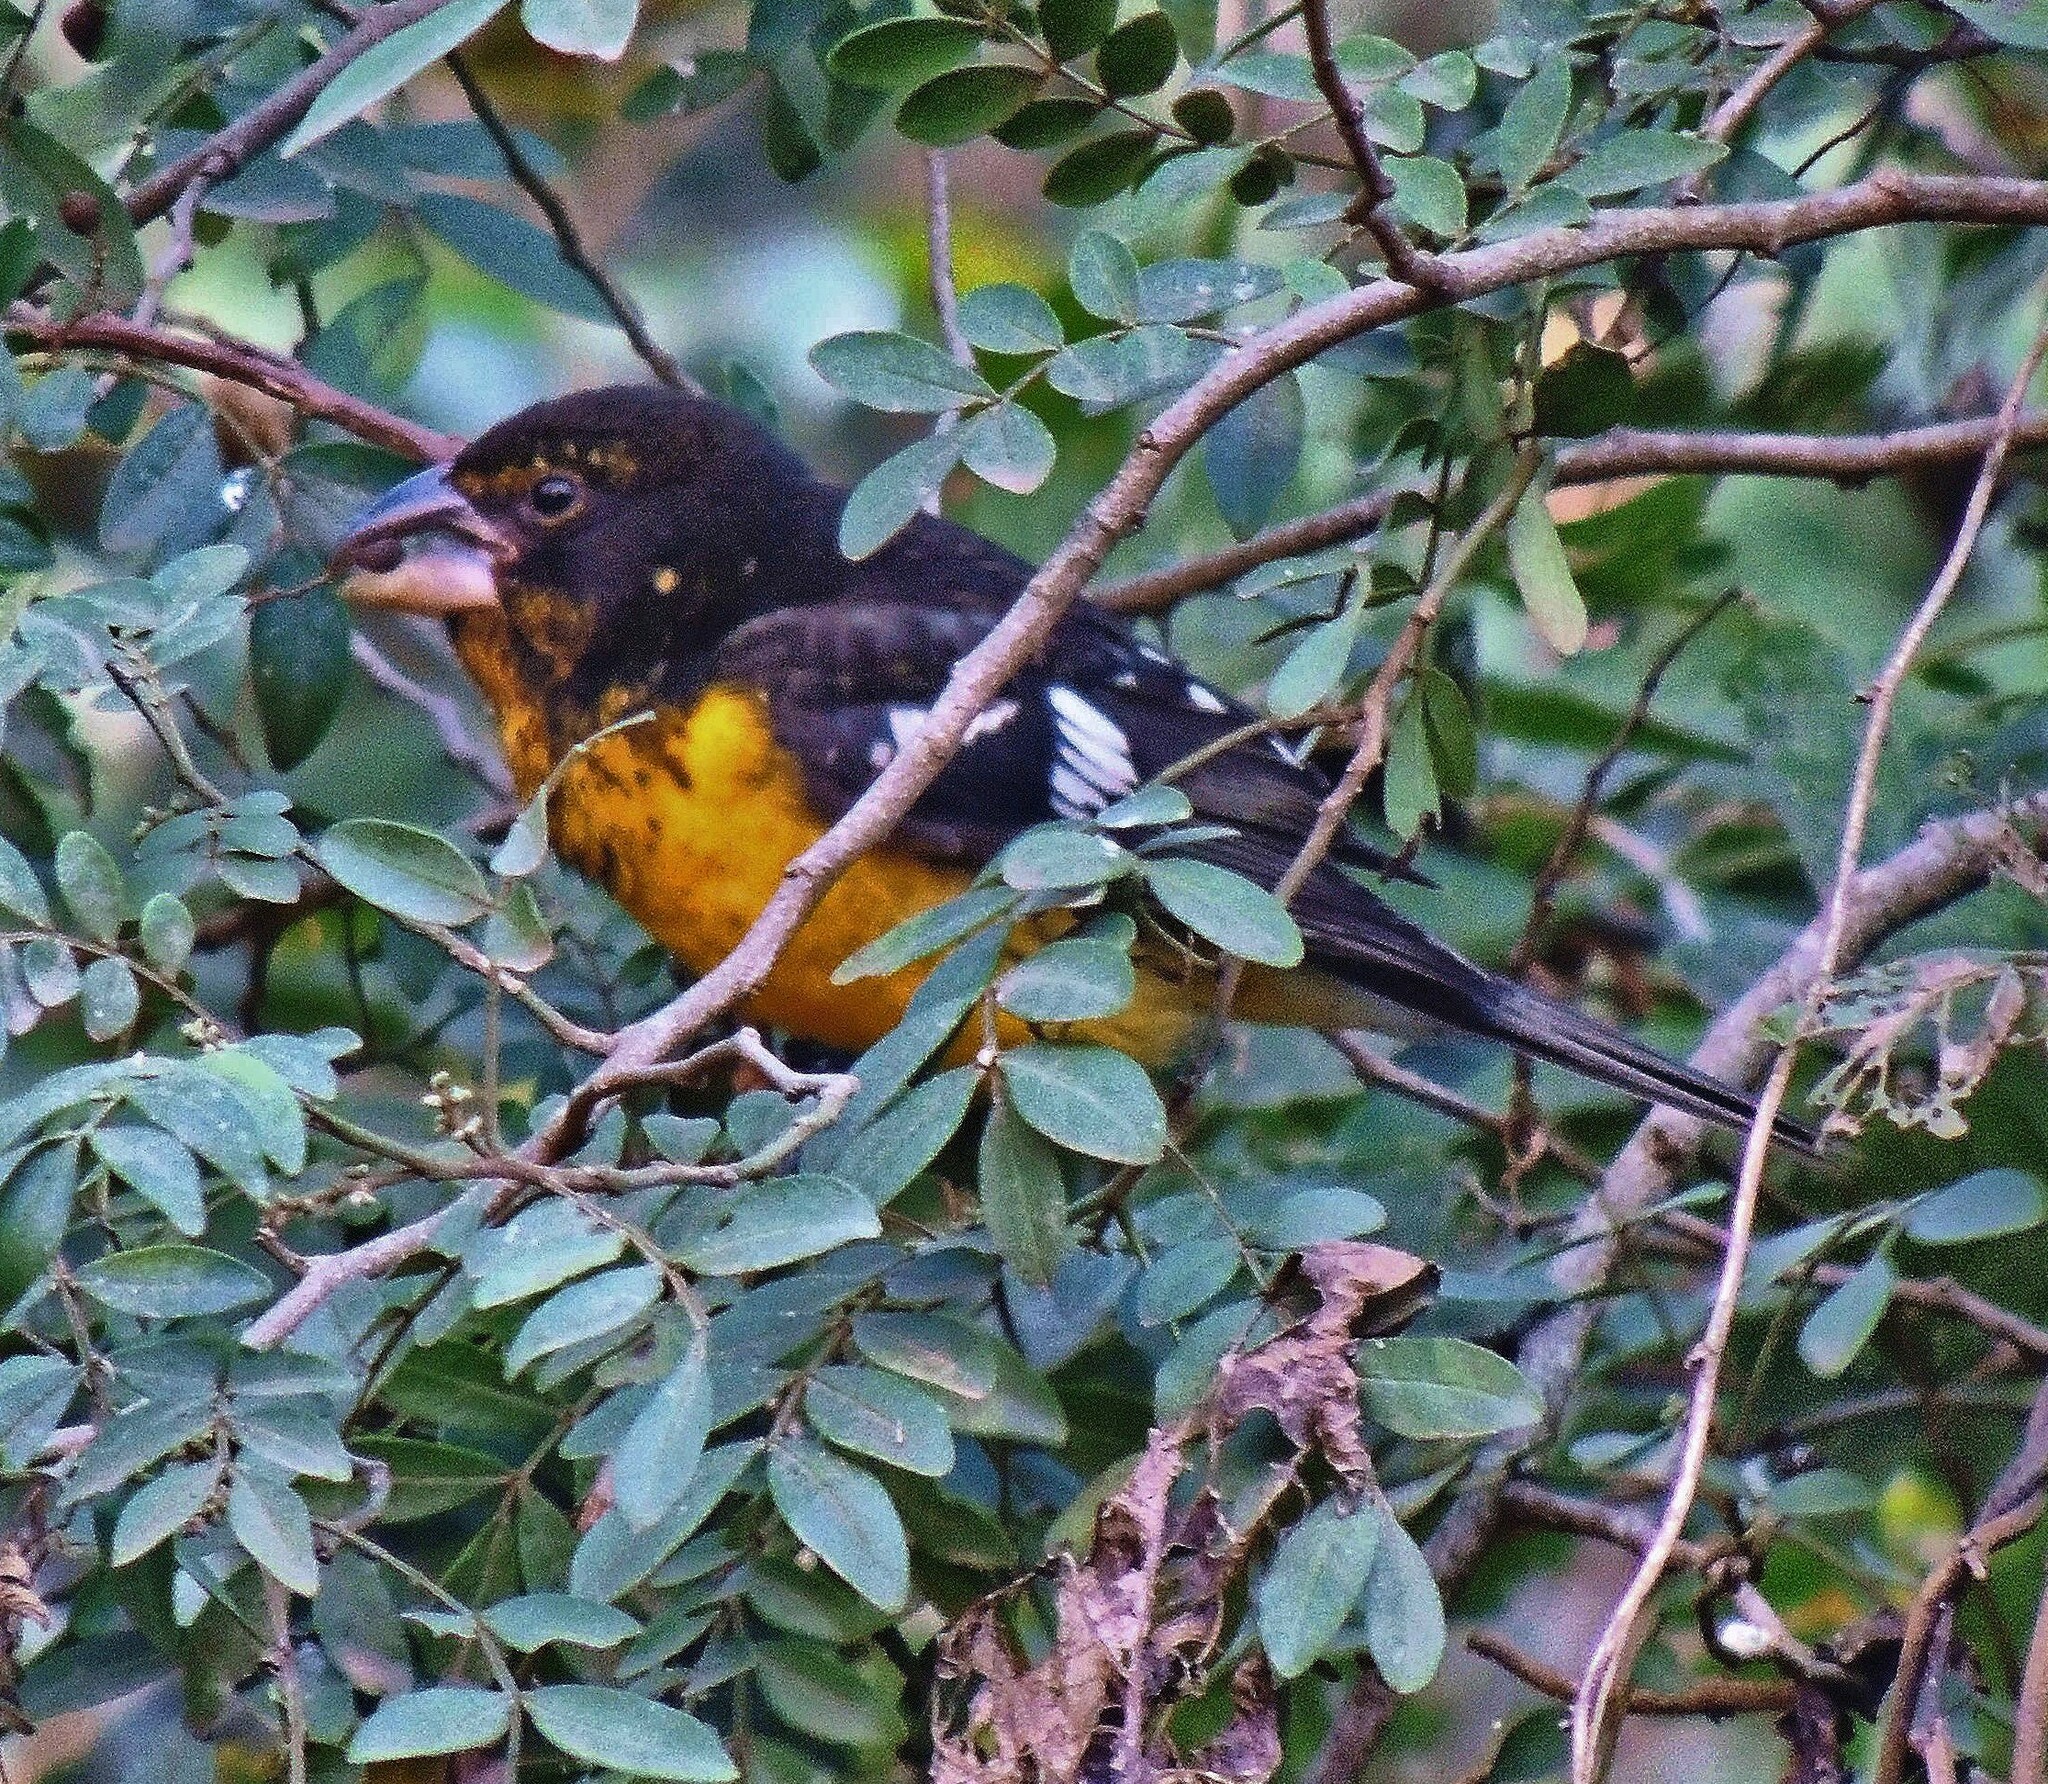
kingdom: Animalia
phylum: Chordata
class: Aves
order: Passeriformes
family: Cardinalidae
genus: Pheucticus
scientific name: Pheucticus aureoventris
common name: Black-backed grosbeak
